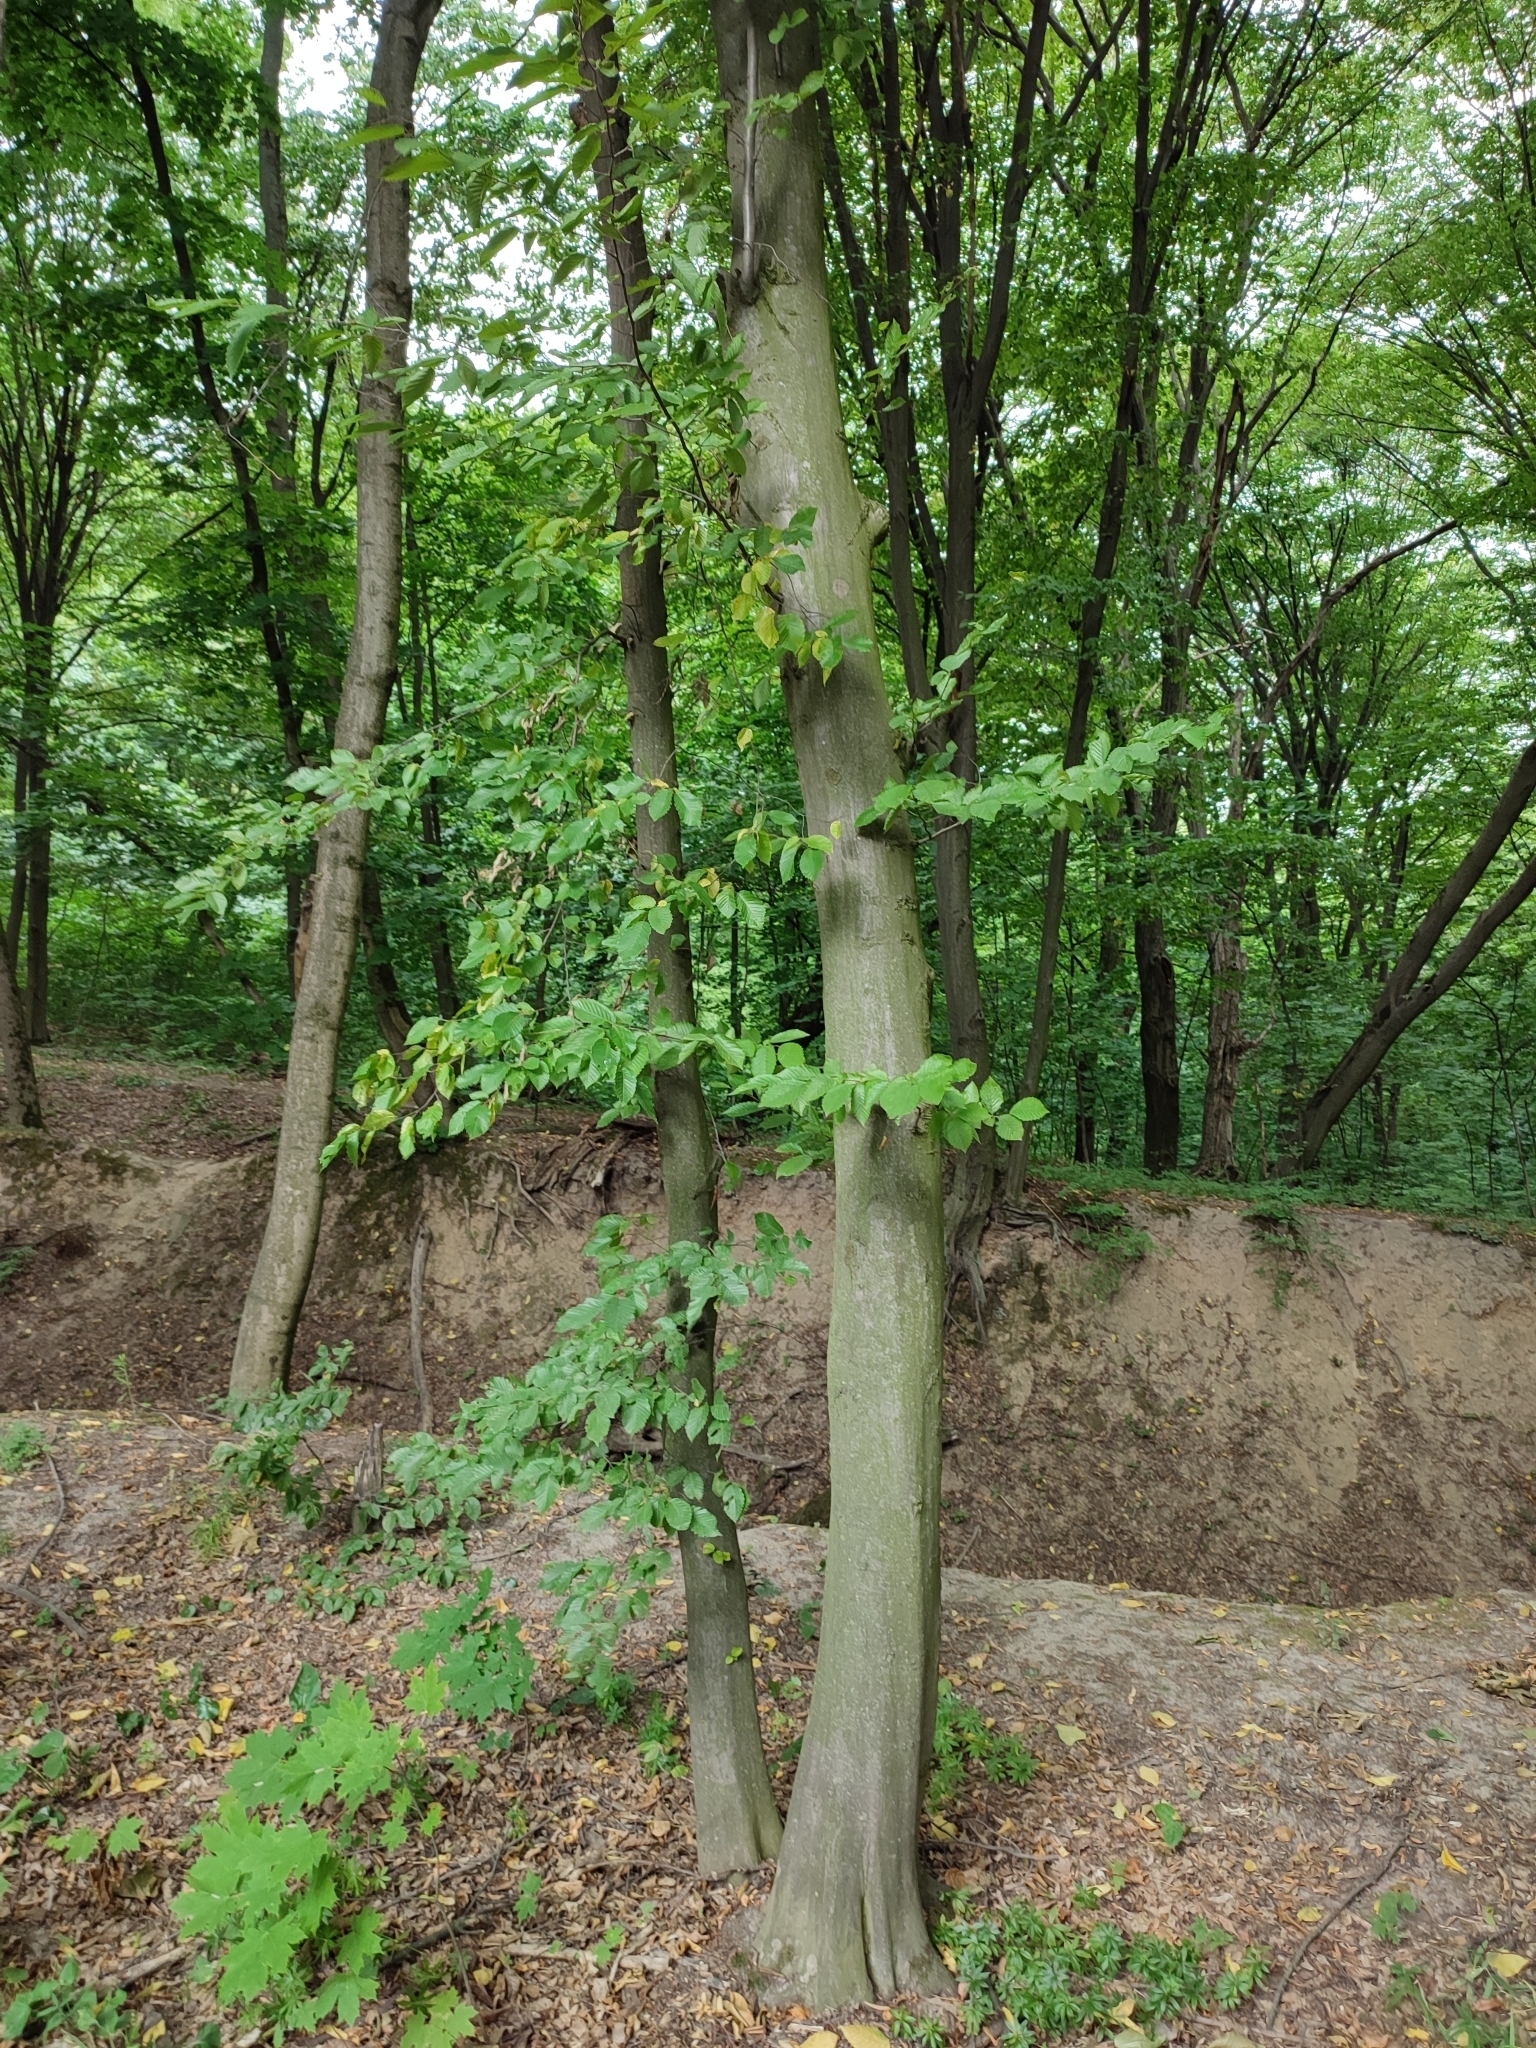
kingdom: Plantae
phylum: Tracheophyta
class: Magnoliopsida
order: Fagales
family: Betulaceae
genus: Carpinus
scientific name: Carpinus betulus
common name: Hornbeam
